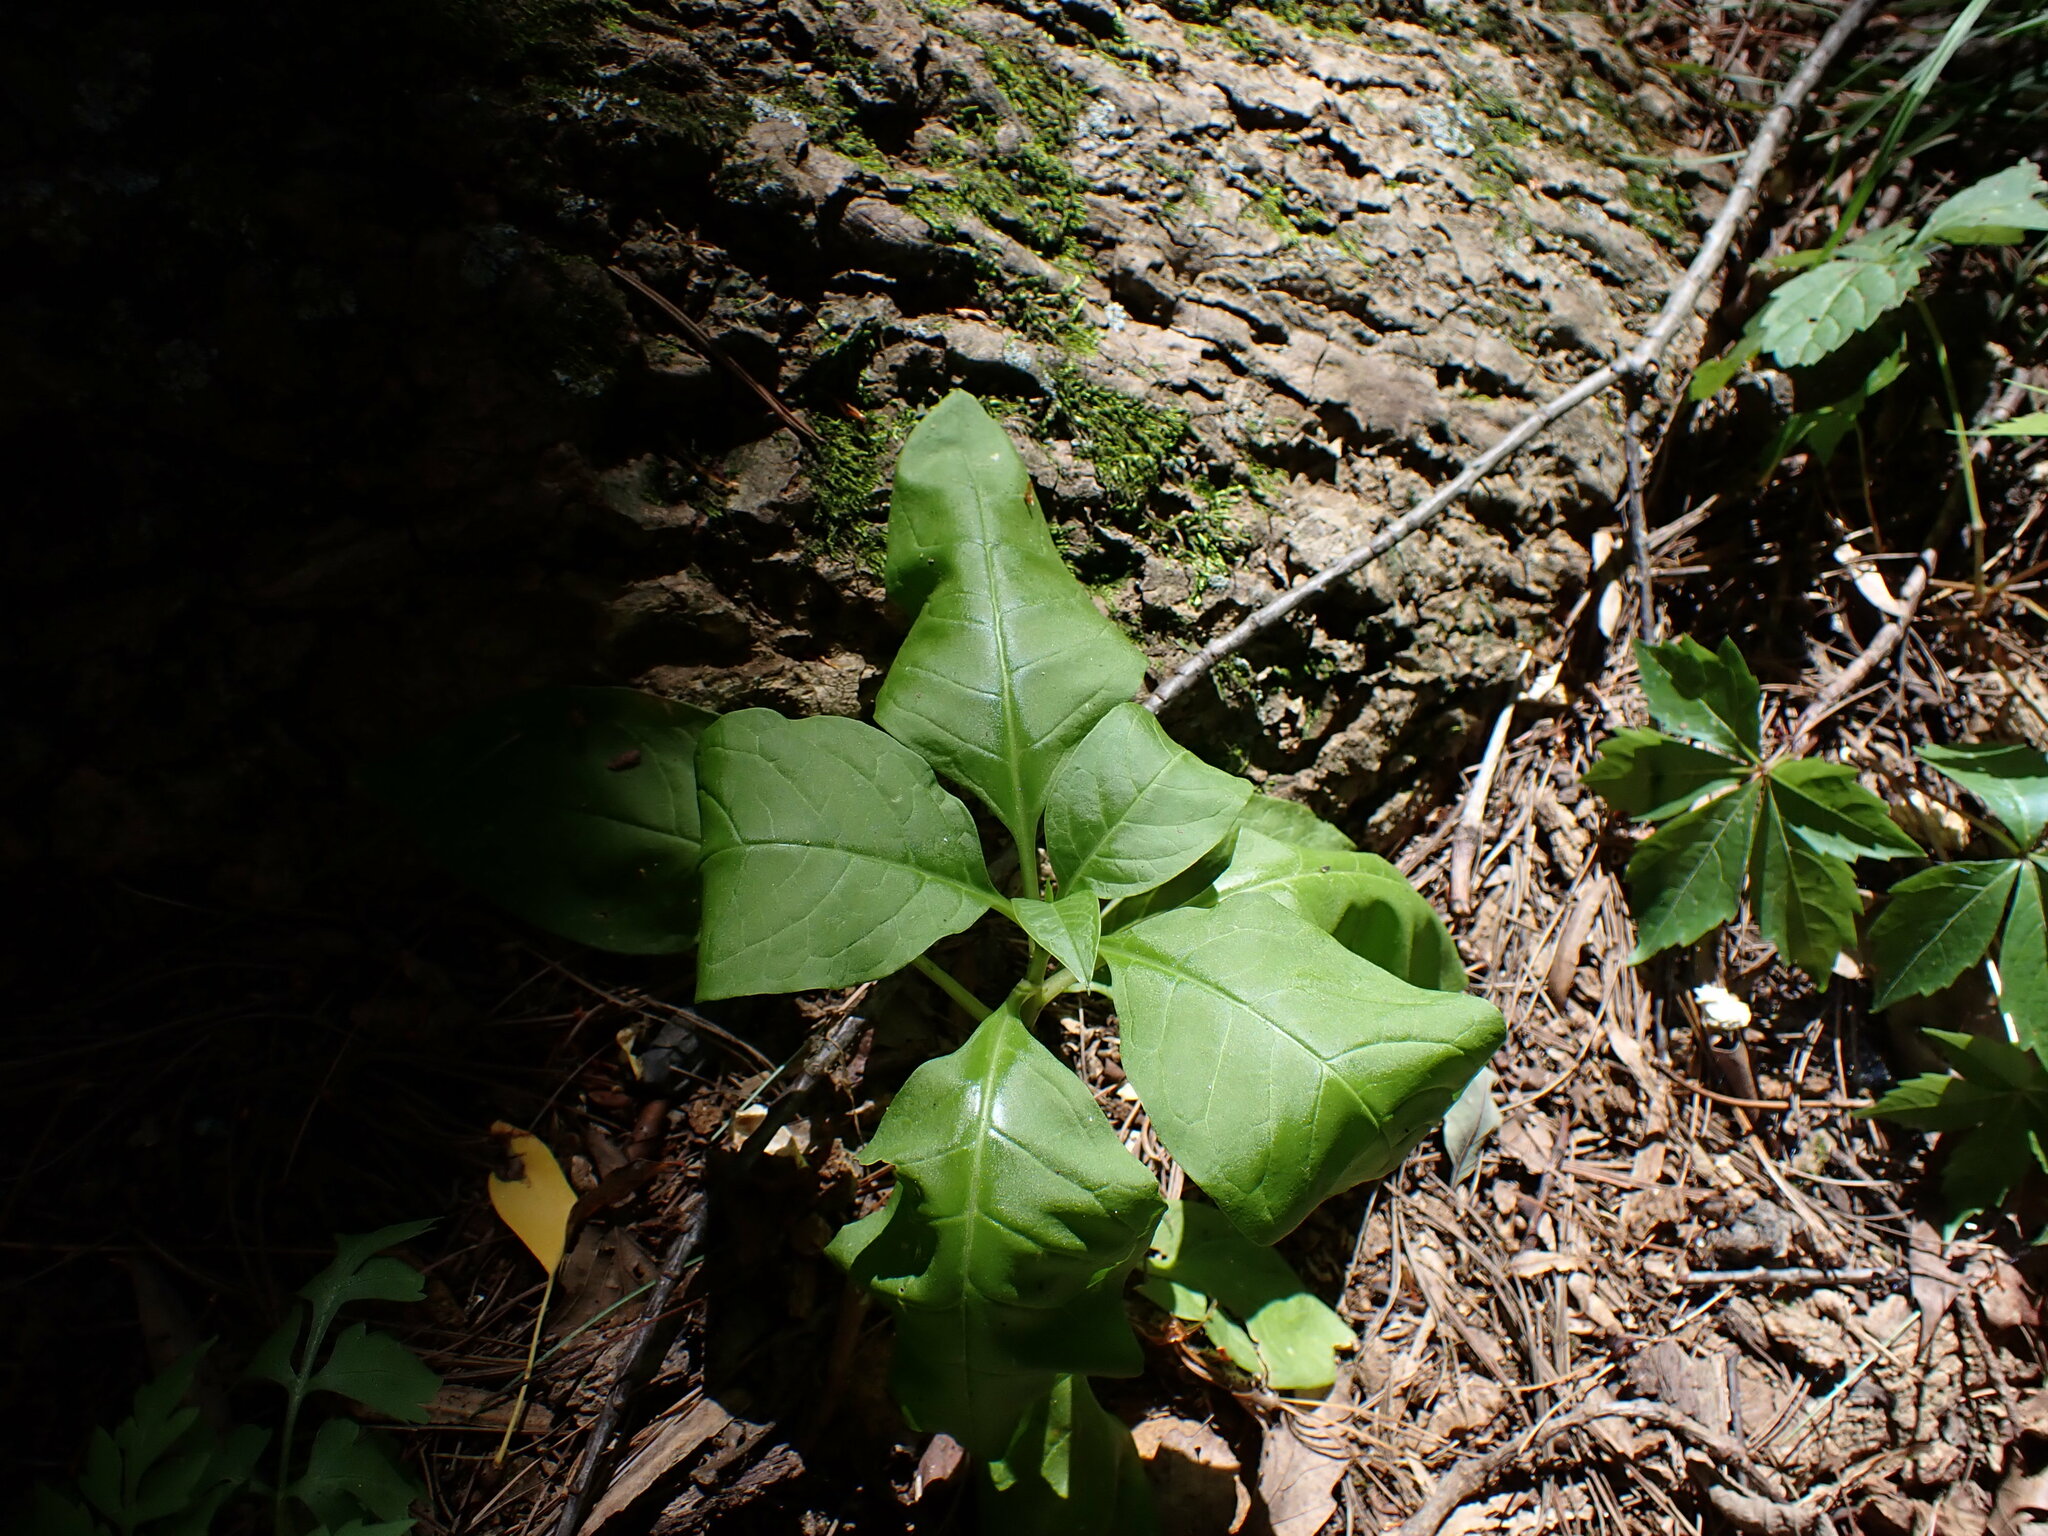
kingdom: Plantae
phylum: Tracheophyta
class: Magnoliopsida
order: Caryophyllales
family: Phytolaccaceae
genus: Phytolacca
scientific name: Phytolacca americana
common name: American pokeweed
